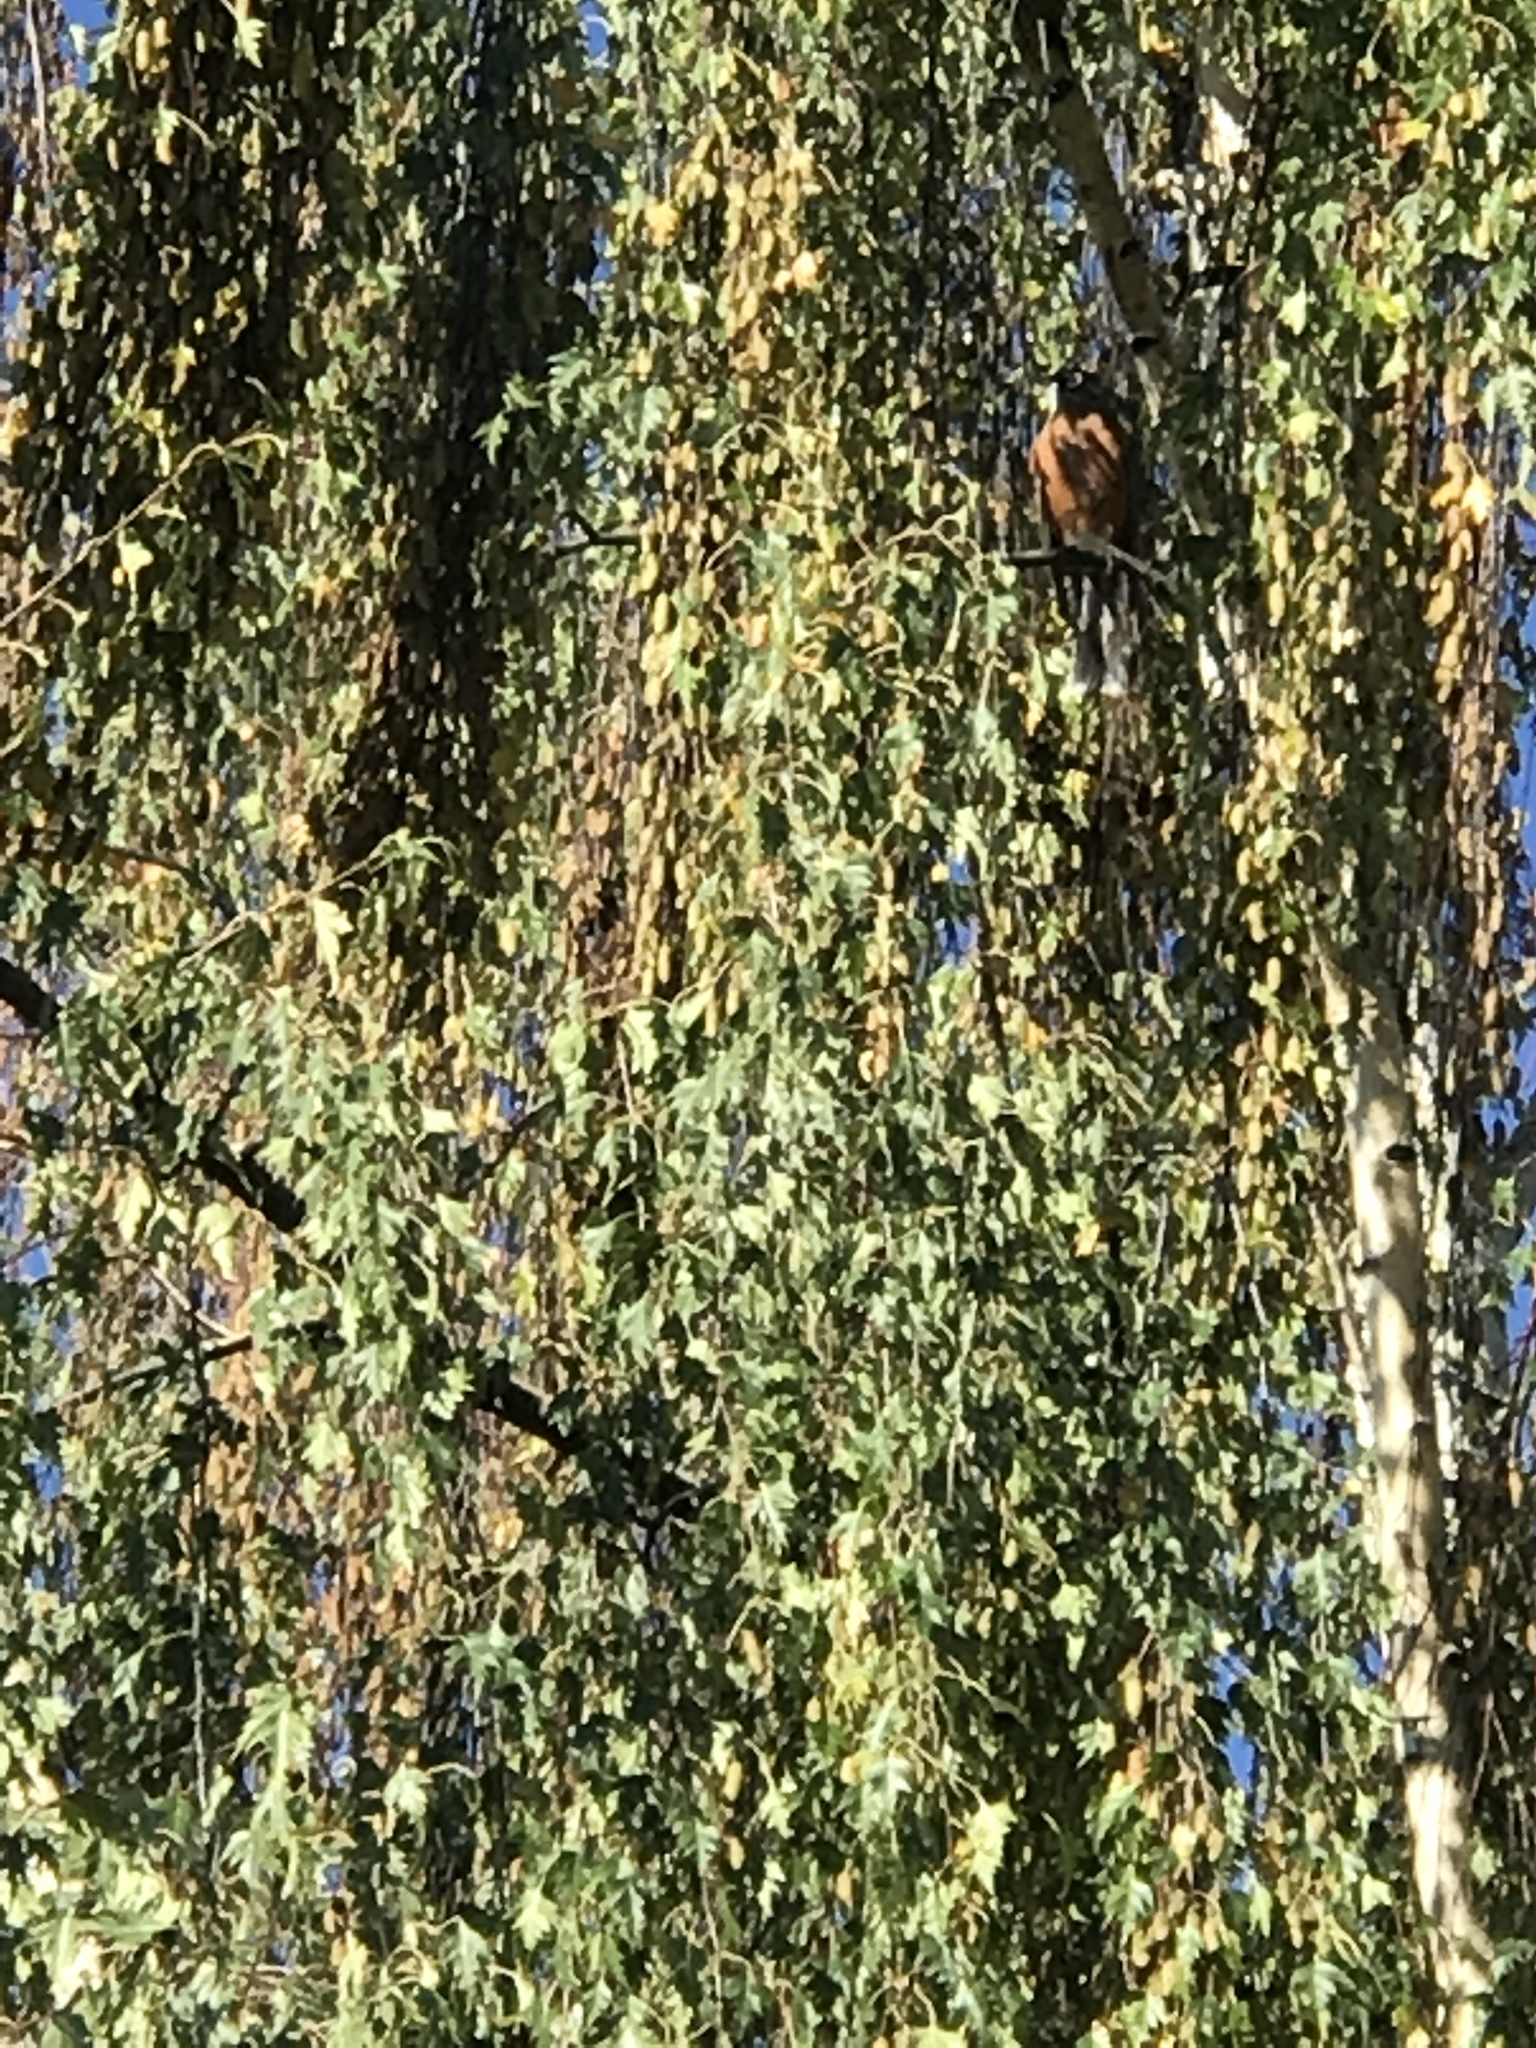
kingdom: Animalia
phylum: Chordata
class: Aves
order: Passeriformes
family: Turdidae
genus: Turdus
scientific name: Turdus migratorius
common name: American robin
